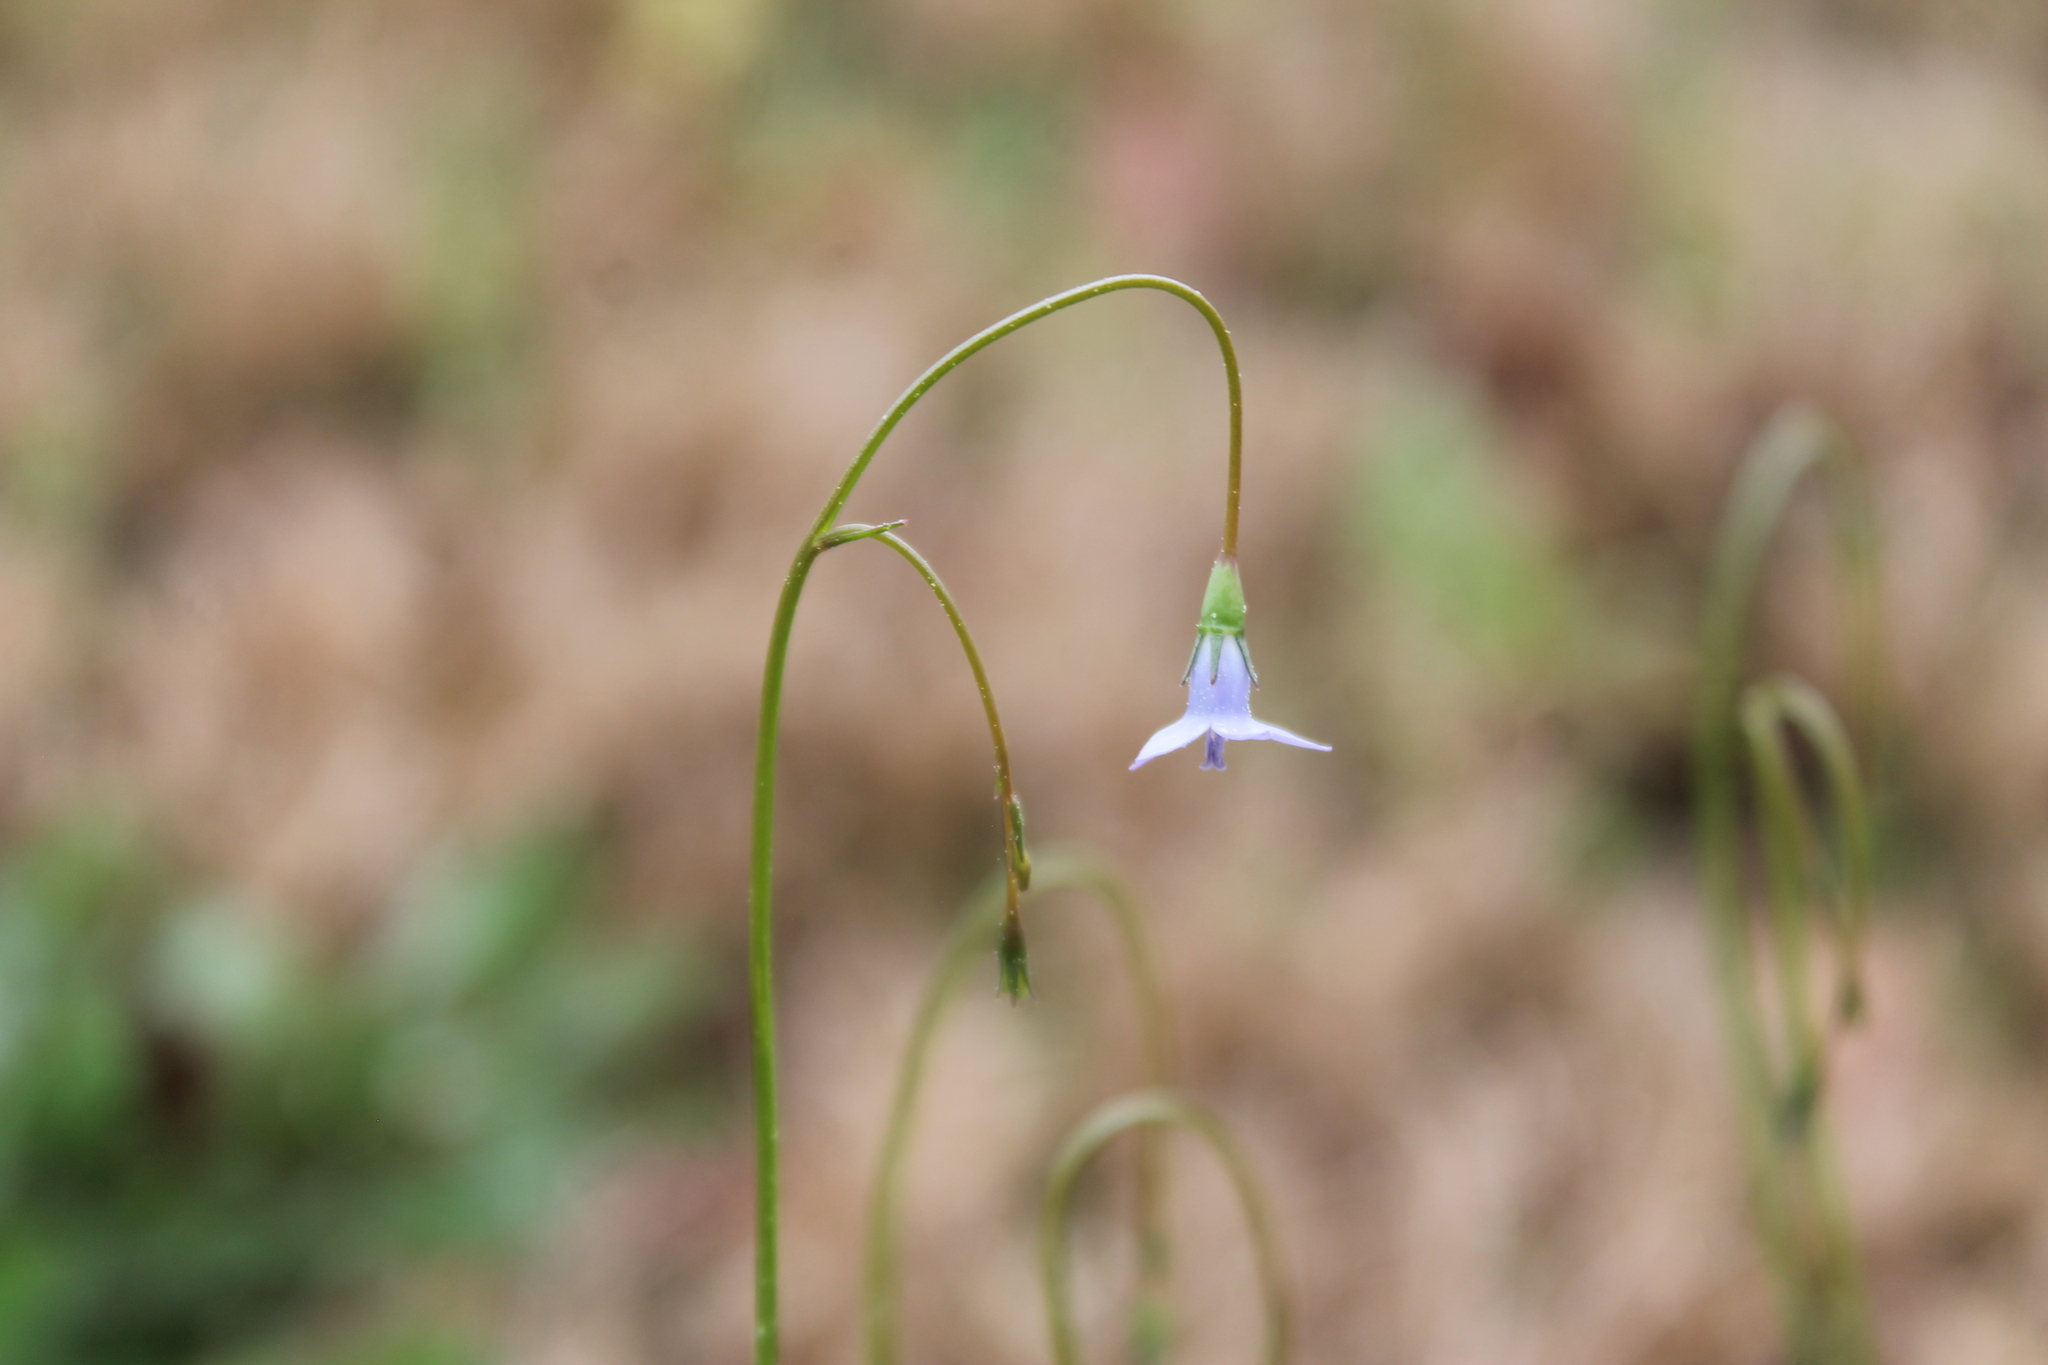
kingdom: Plantae
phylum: Tracheophyta
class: Magnoliopsida
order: Asterales
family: Campanulaceae
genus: Wahlenbergia
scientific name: Wahlenbergia marginata
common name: Southern rockbell
